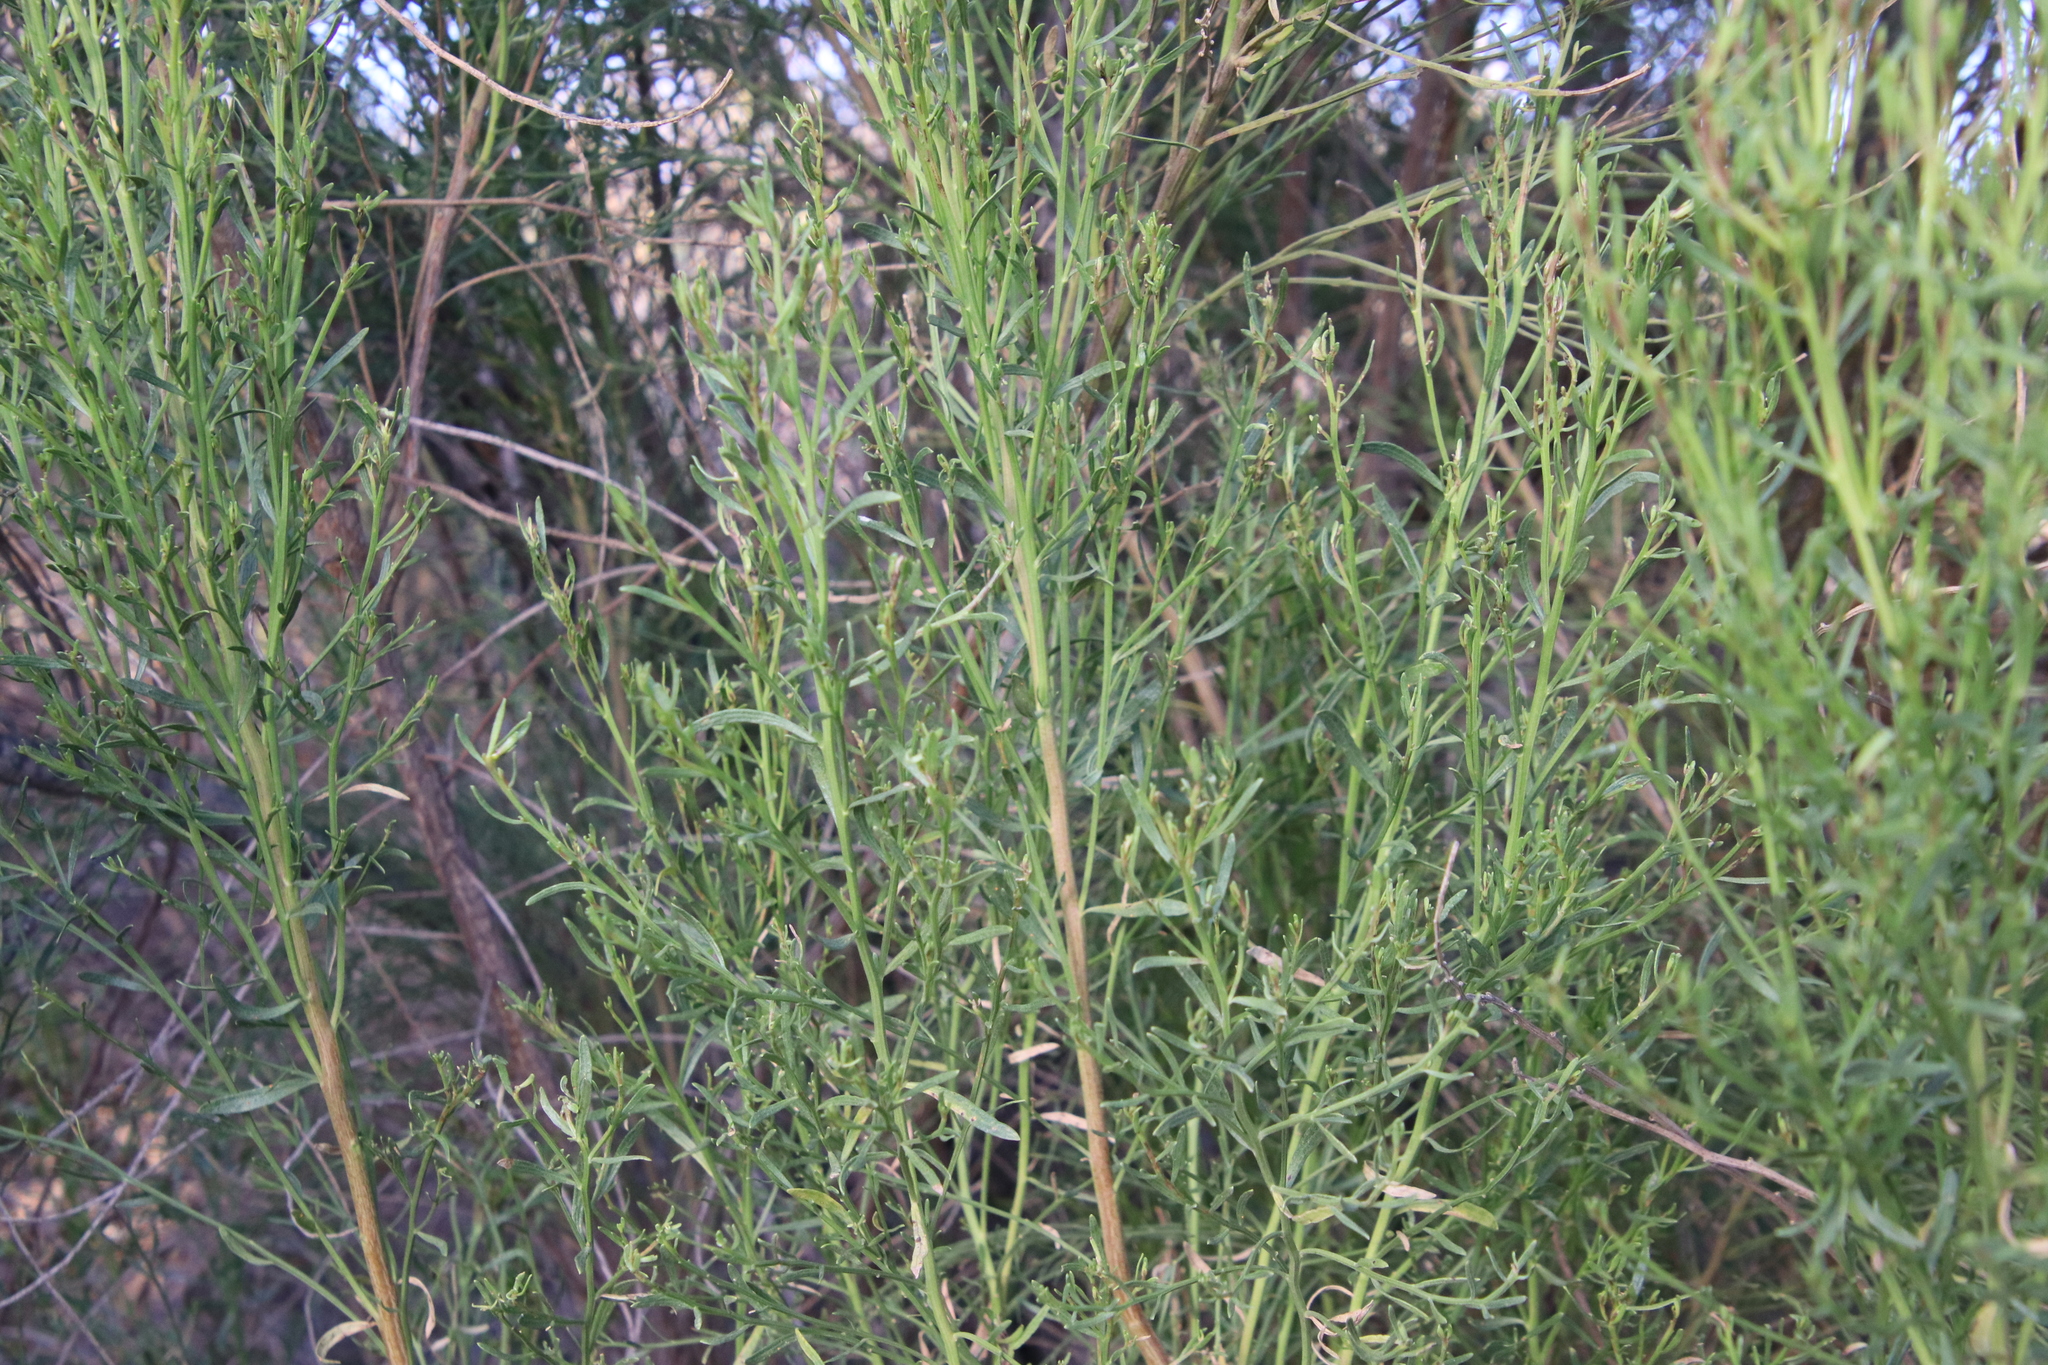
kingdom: Plantae
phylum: Tracheophyta
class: Magnoliopsida
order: Asterales
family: Asteraceae
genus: Baccharis
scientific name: Baccharis sarothroides
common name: Desert-broom
